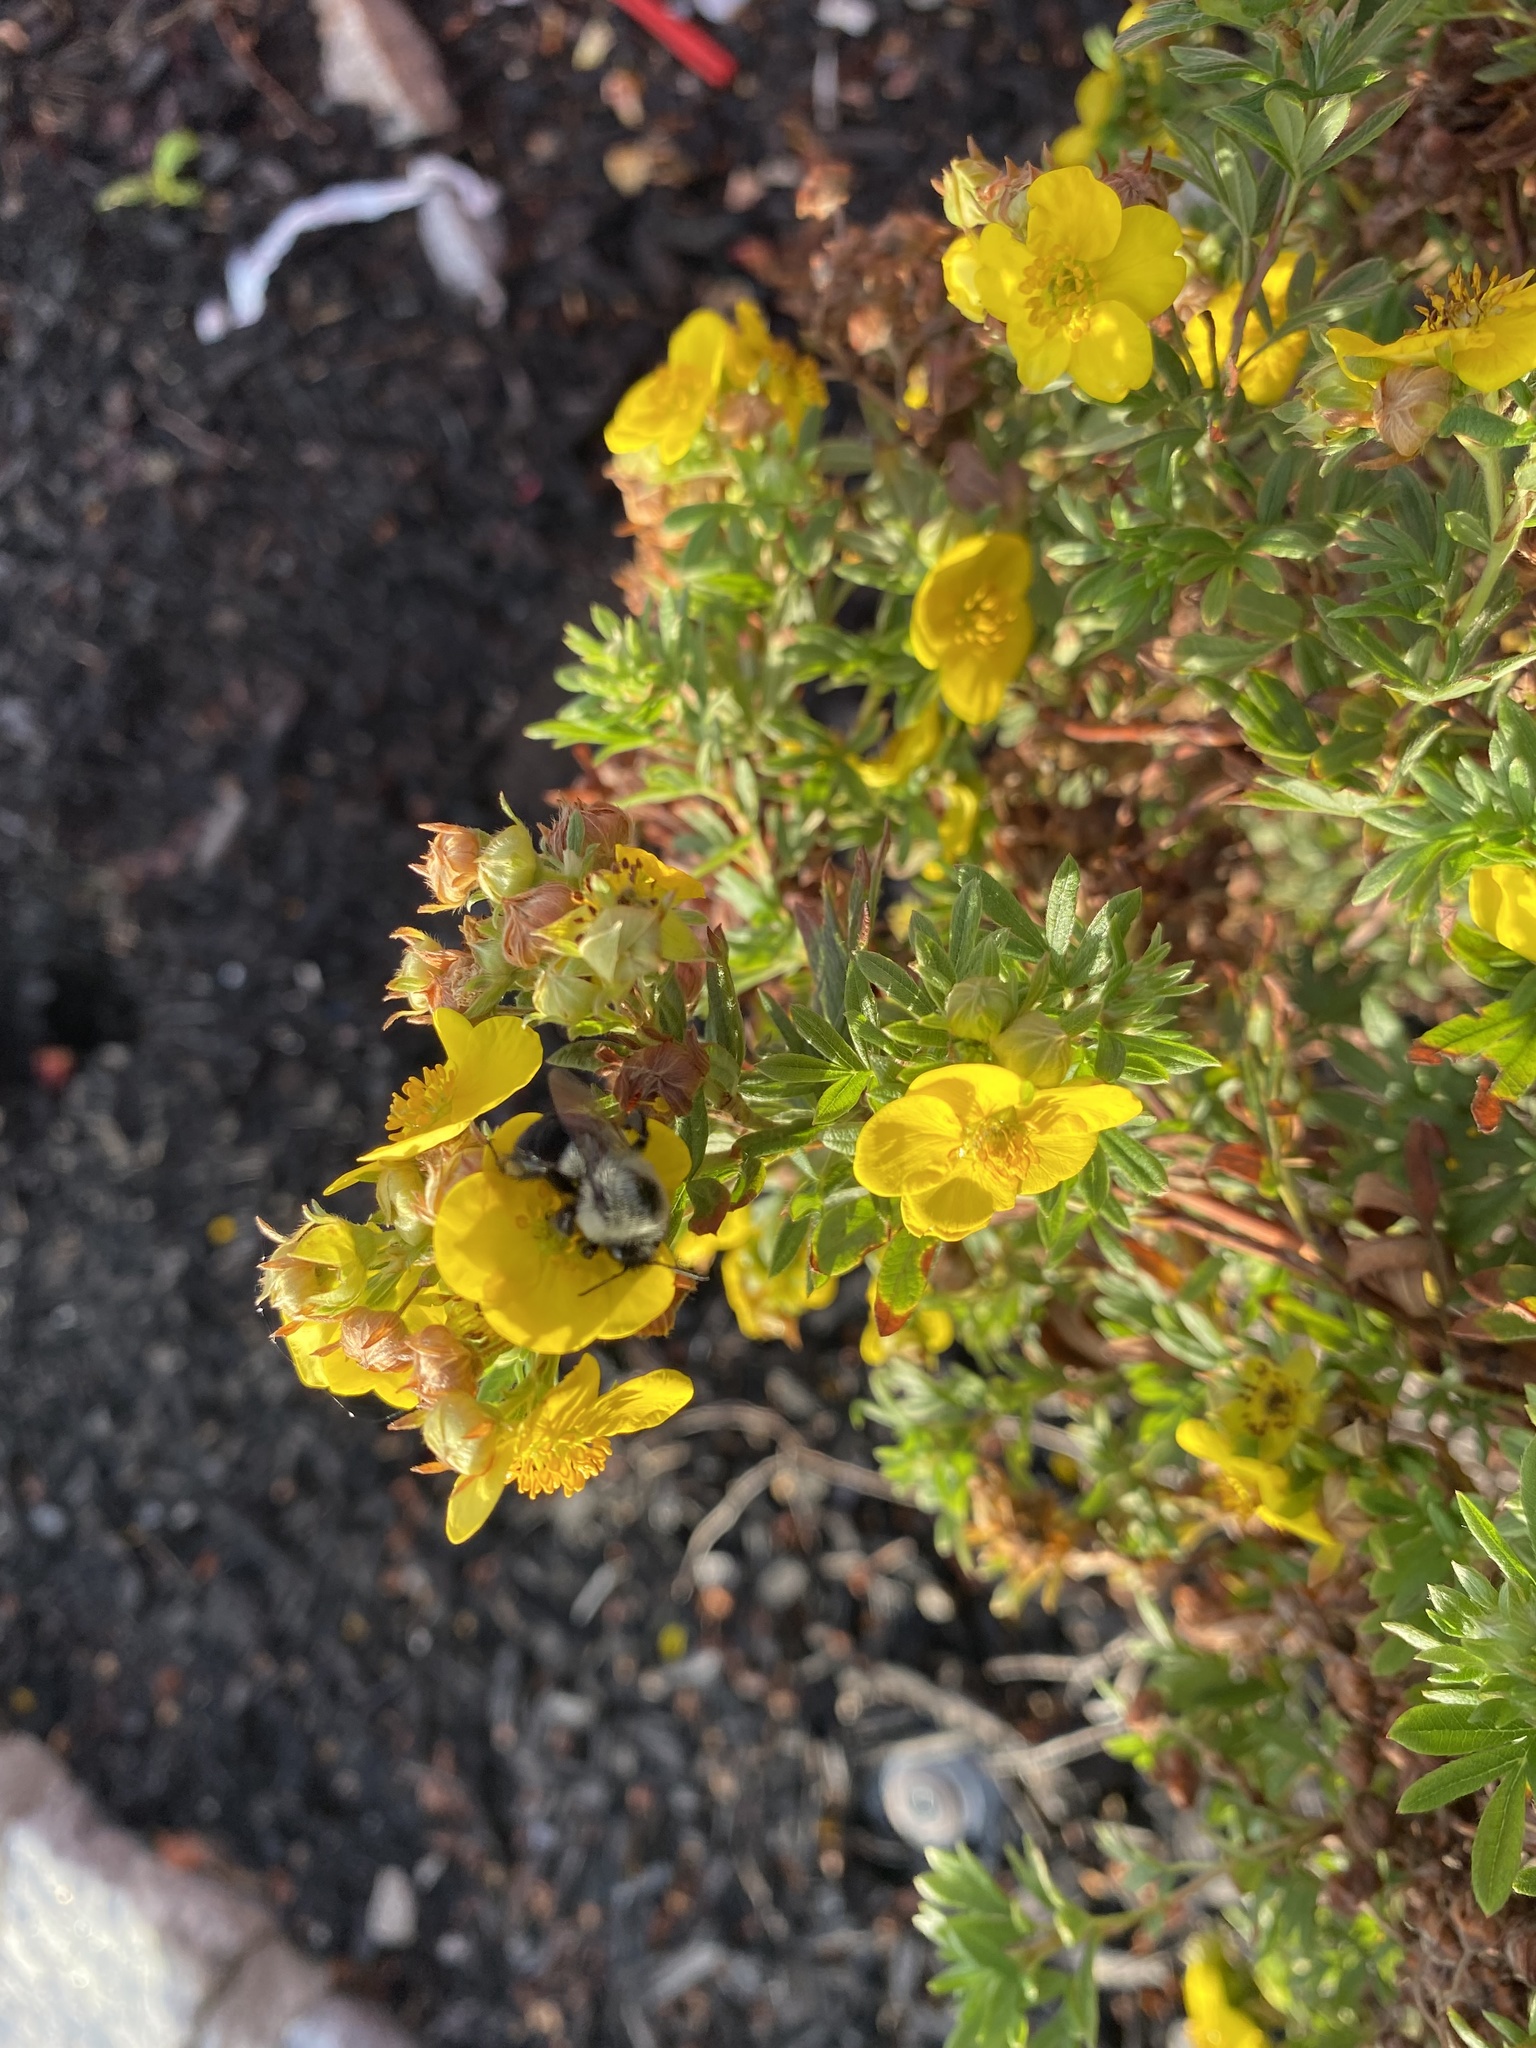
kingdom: Animalia
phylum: Arthropoda
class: Insecta
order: Hymenoptera
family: Apidae
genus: Bombus
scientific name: Bombus impatiens
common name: Common eastern bumble bee
